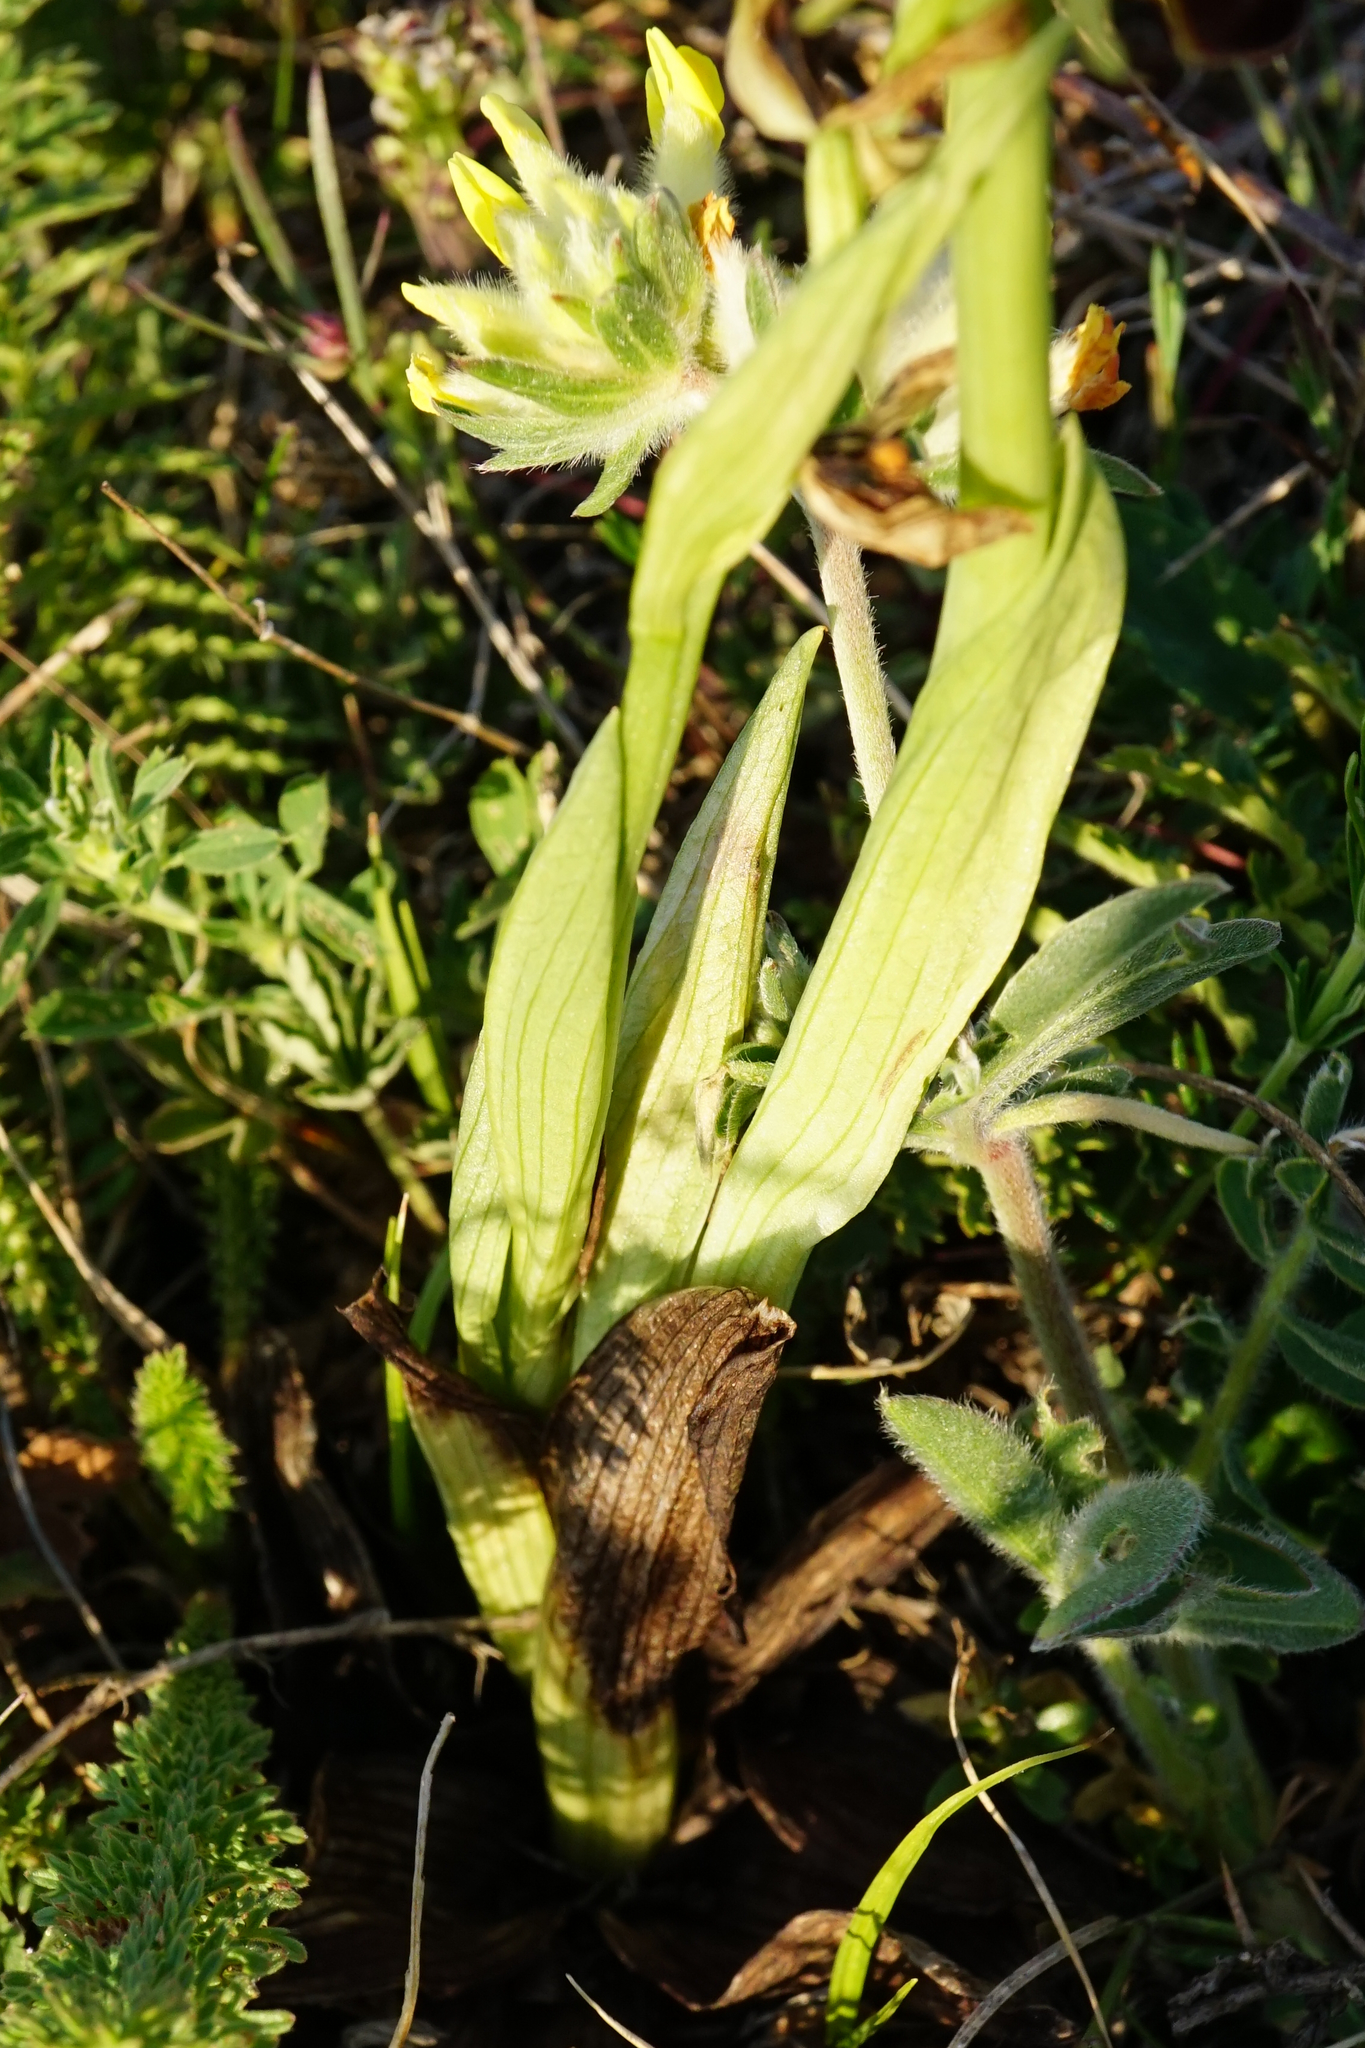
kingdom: Plantae
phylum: Tracheophyta
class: Liliopsida
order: Asparagales
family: Orchidaceae
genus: Ophrys
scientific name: Ophrys sphegodes
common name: Early spider-orchid
